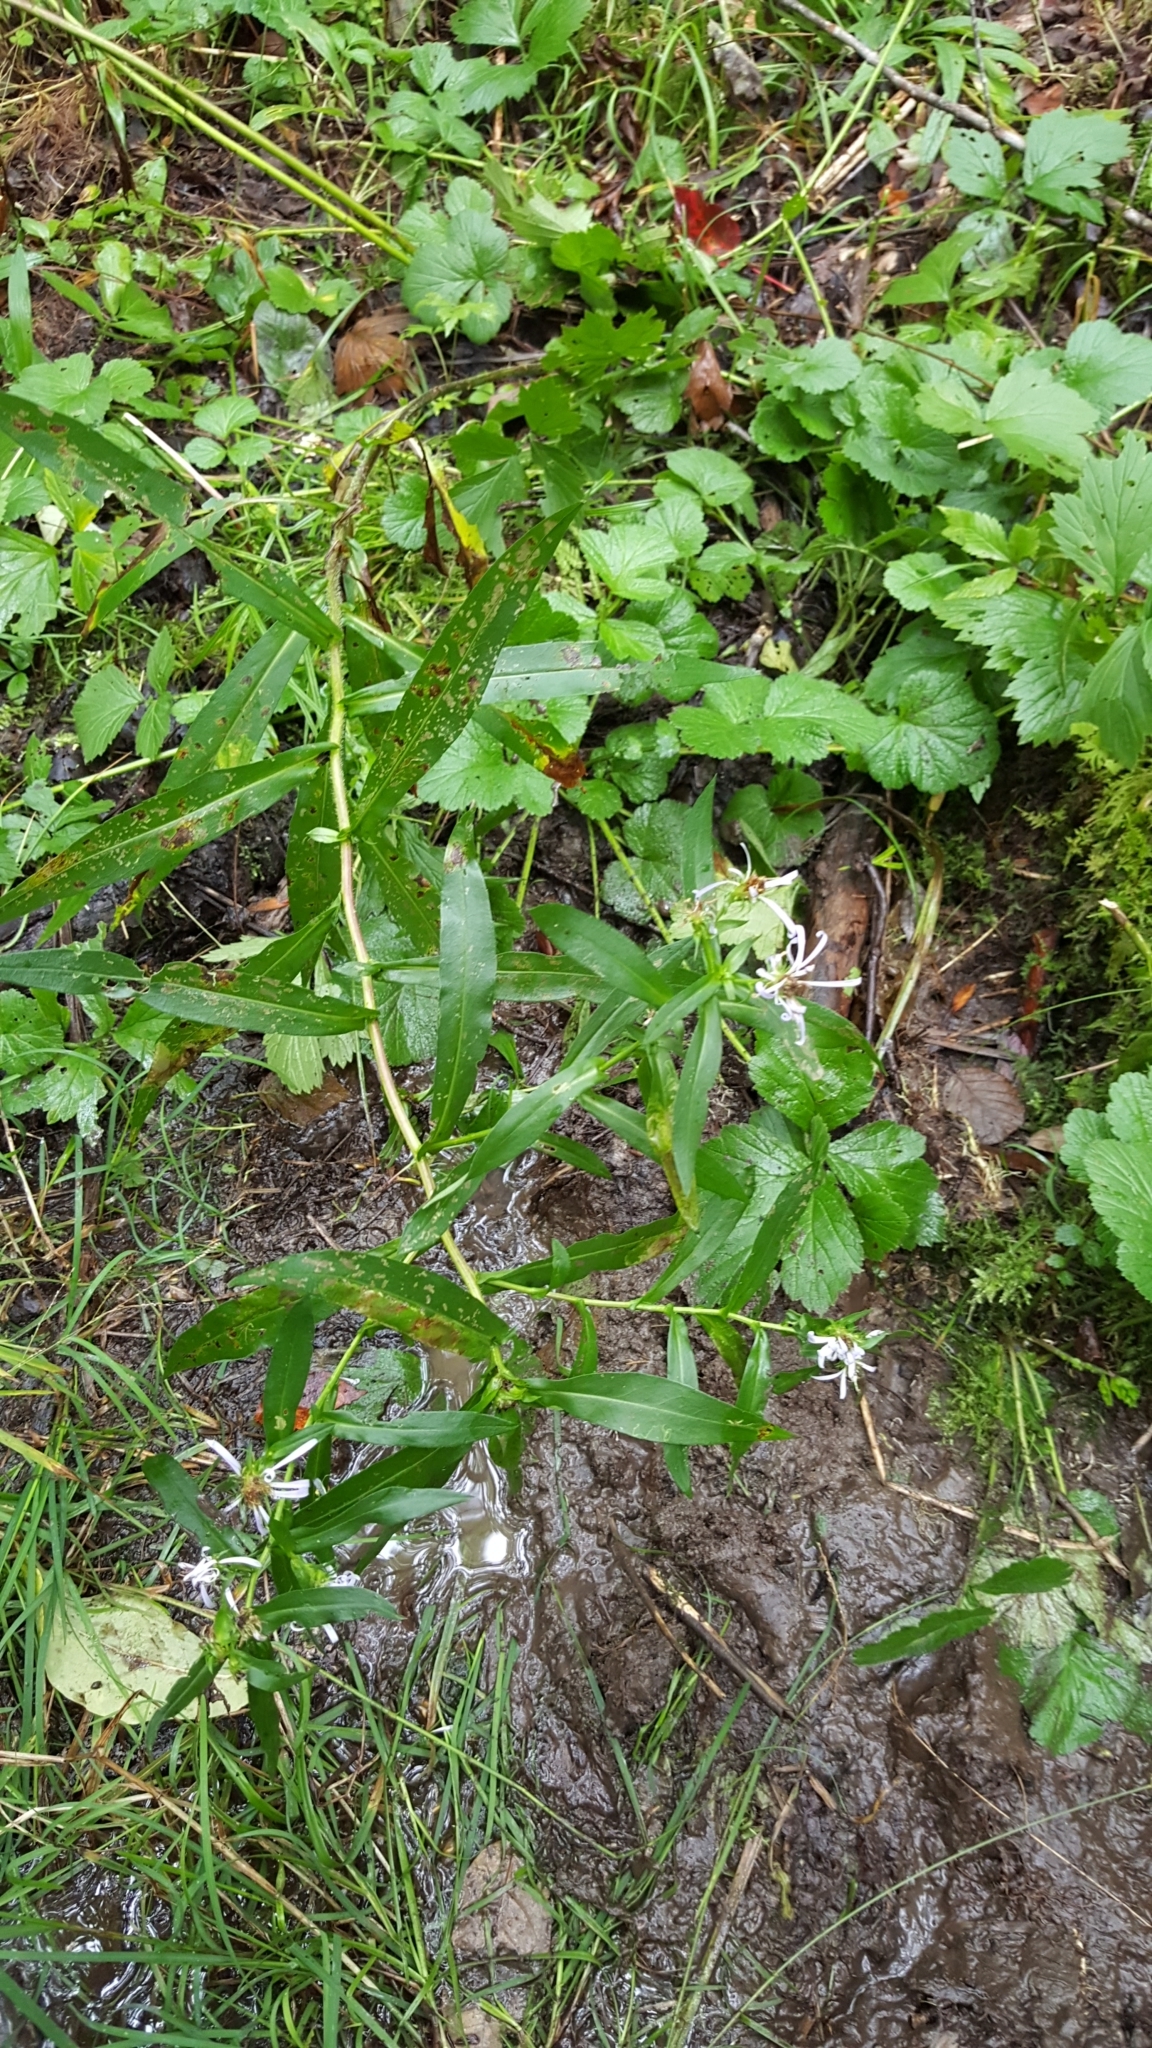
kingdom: Plantae
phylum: Tracheophyta
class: Magnoliopsida
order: Asterales
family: Asteraceae
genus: Symphyotrichum
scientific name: Symphyotrichum puniceum
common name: Bog aster
